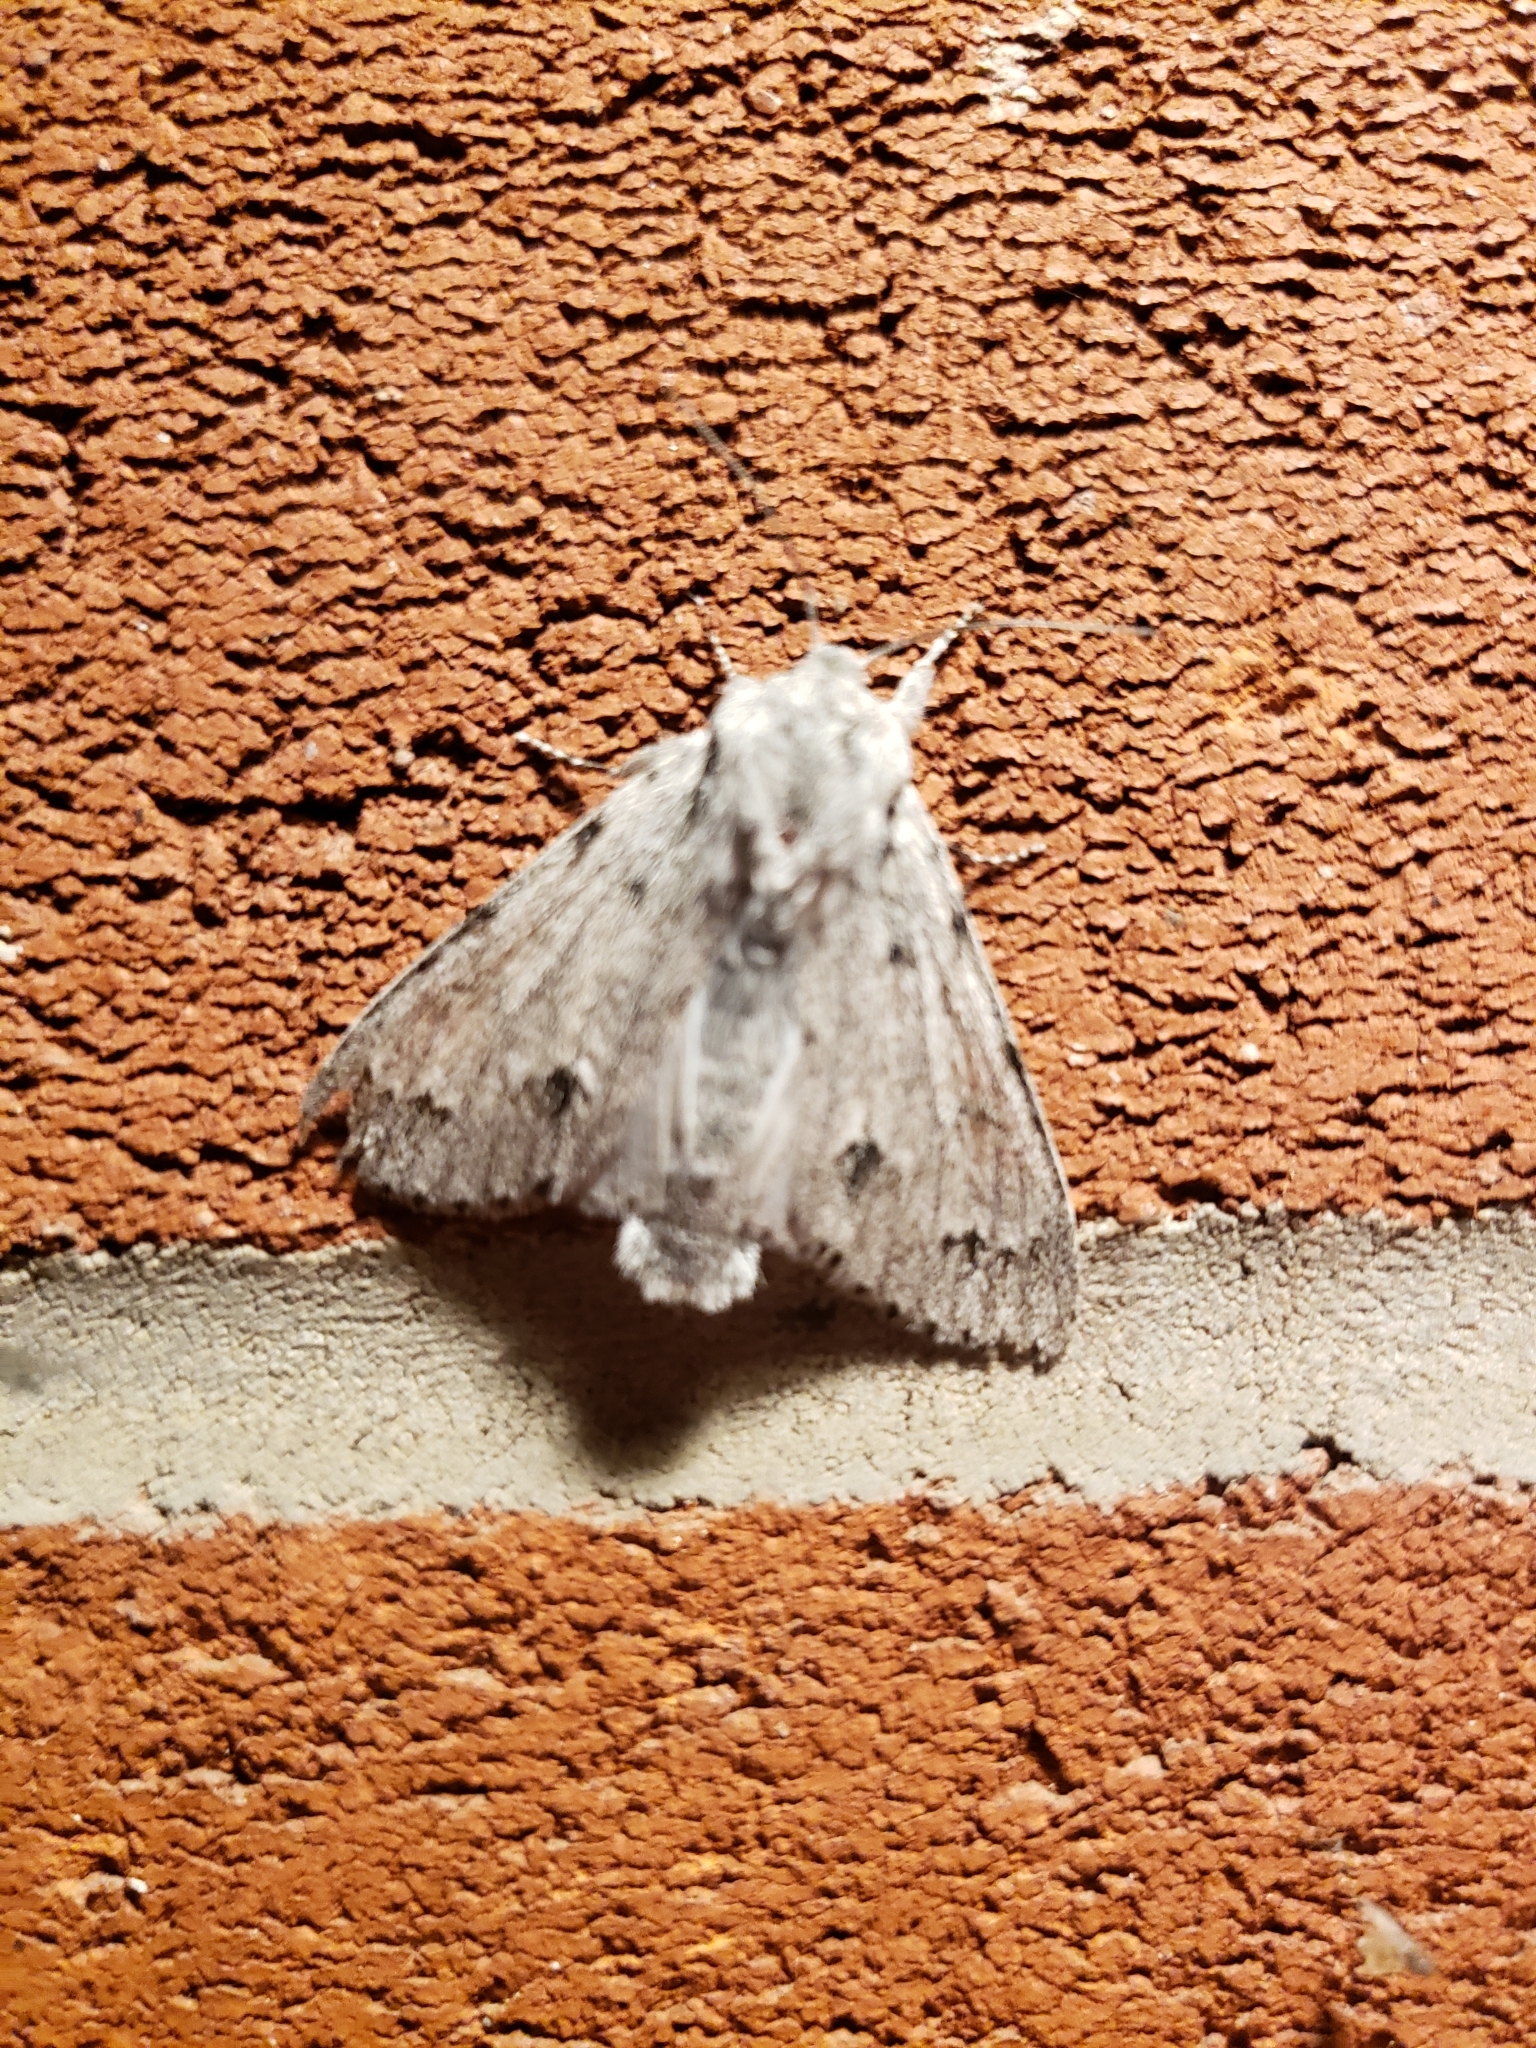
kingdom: Animalia
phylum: Arthropoda
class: Insecta
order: Lepidoptera
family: Noctuidae
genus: Acronicta
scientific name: Acronicta lepusculina
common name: Cottonwood dagger
